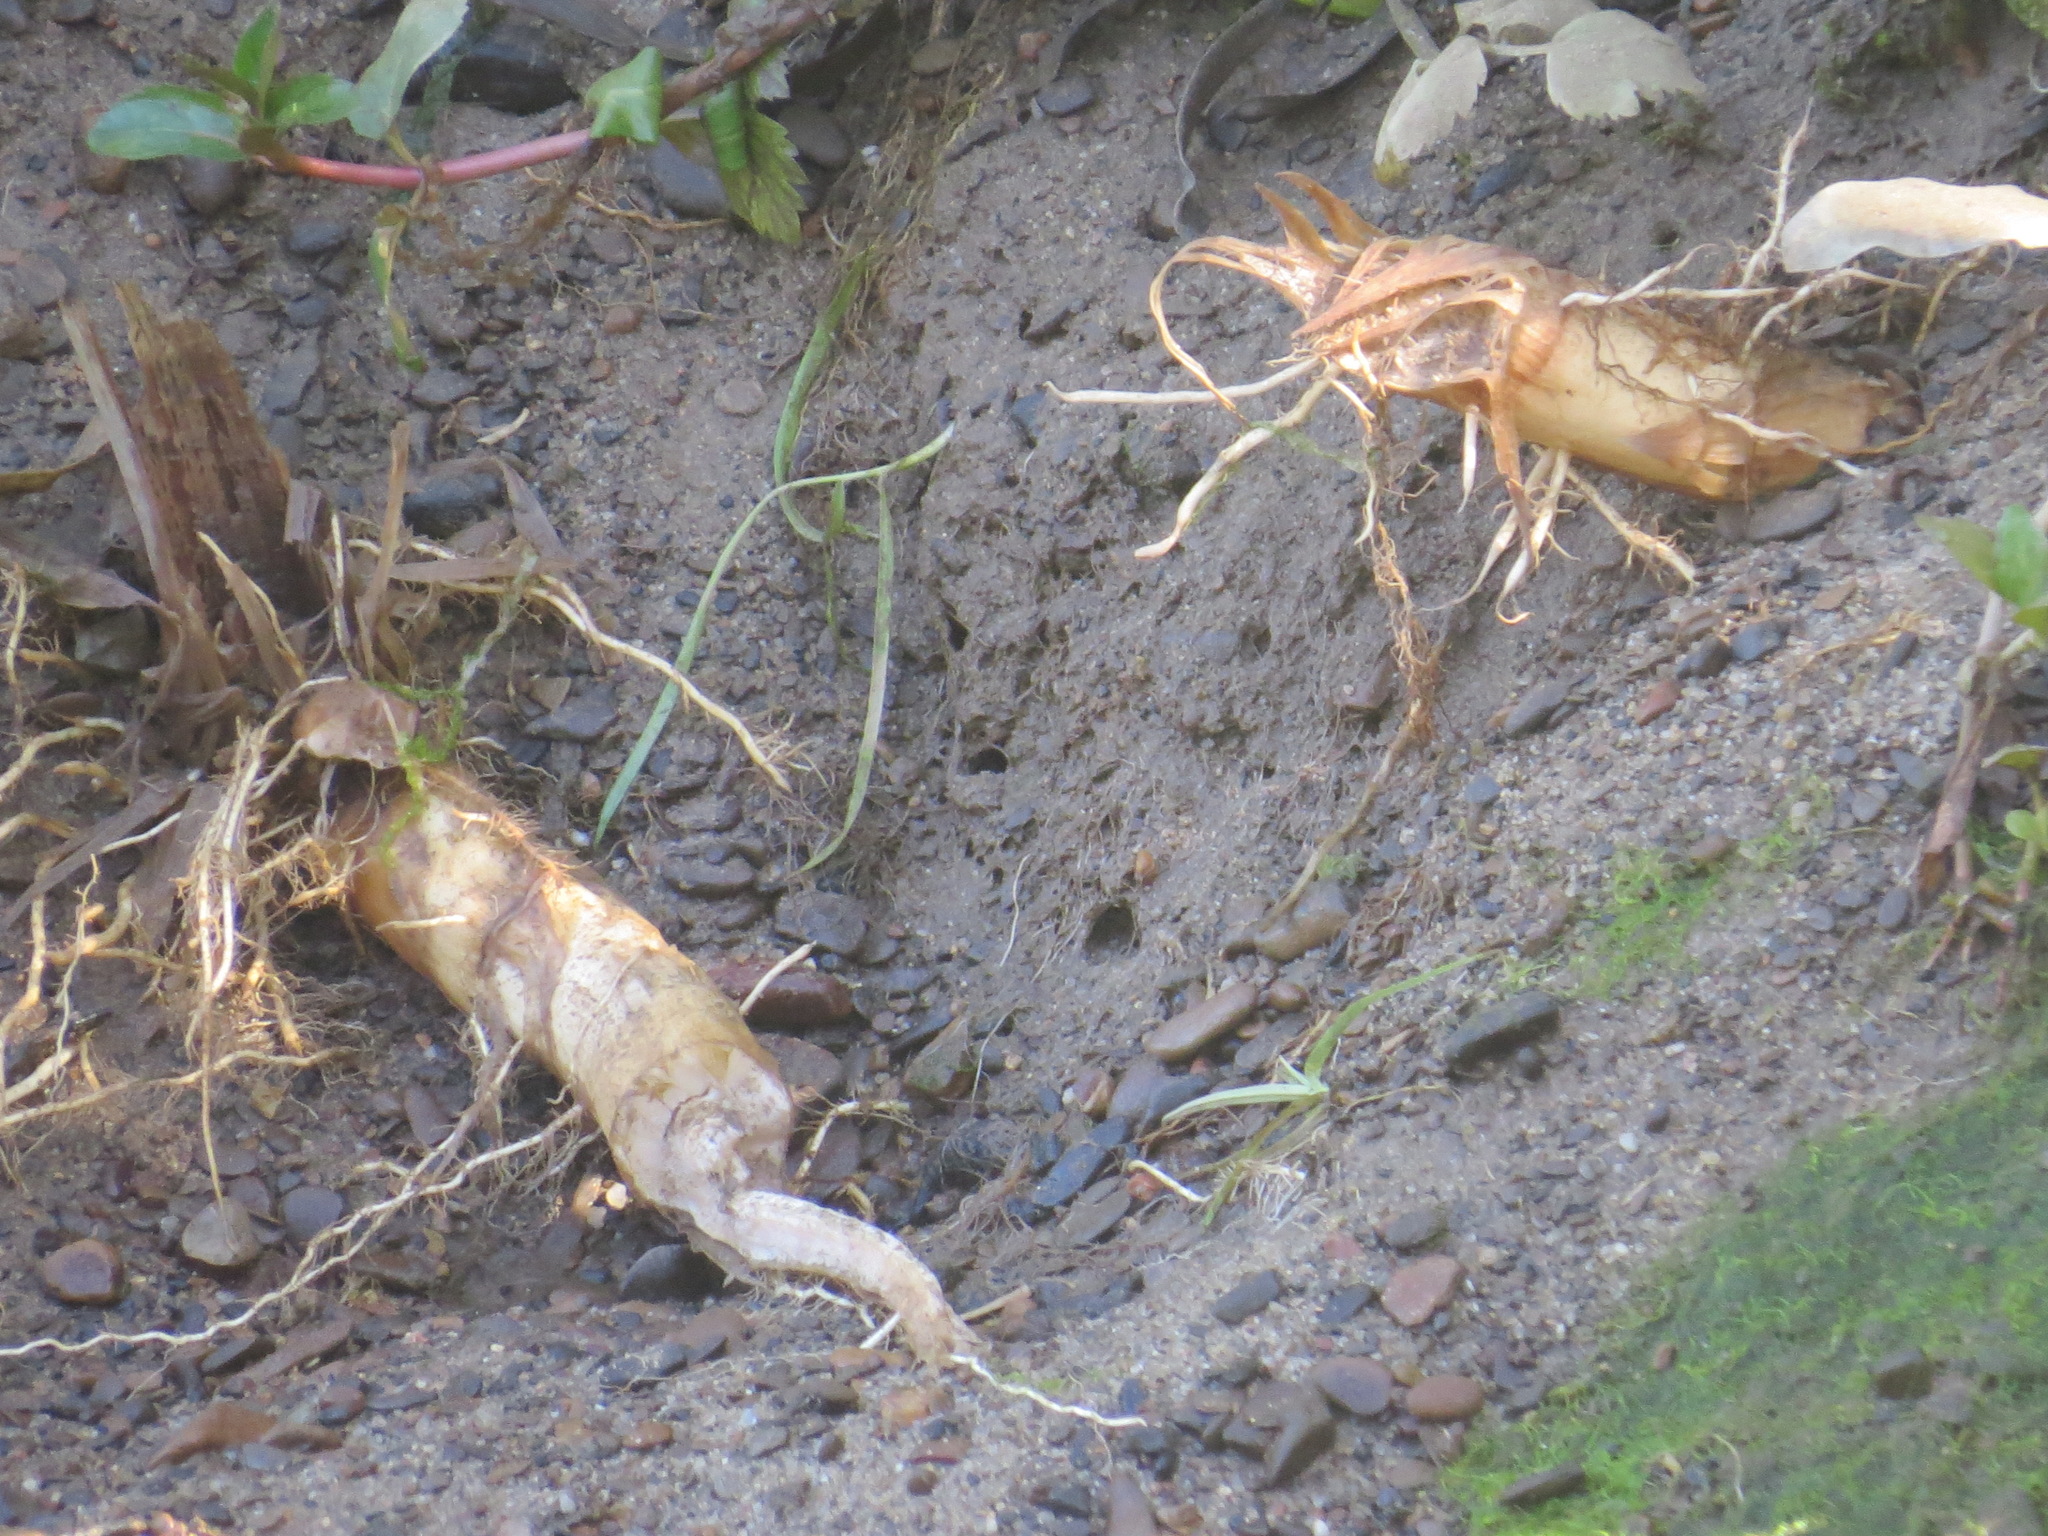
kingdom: Animalia
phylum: Chordata
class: Mammalia
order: Rodentia
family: Castoridae
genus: Castor
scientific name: Castor canadensis
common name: American beaver
